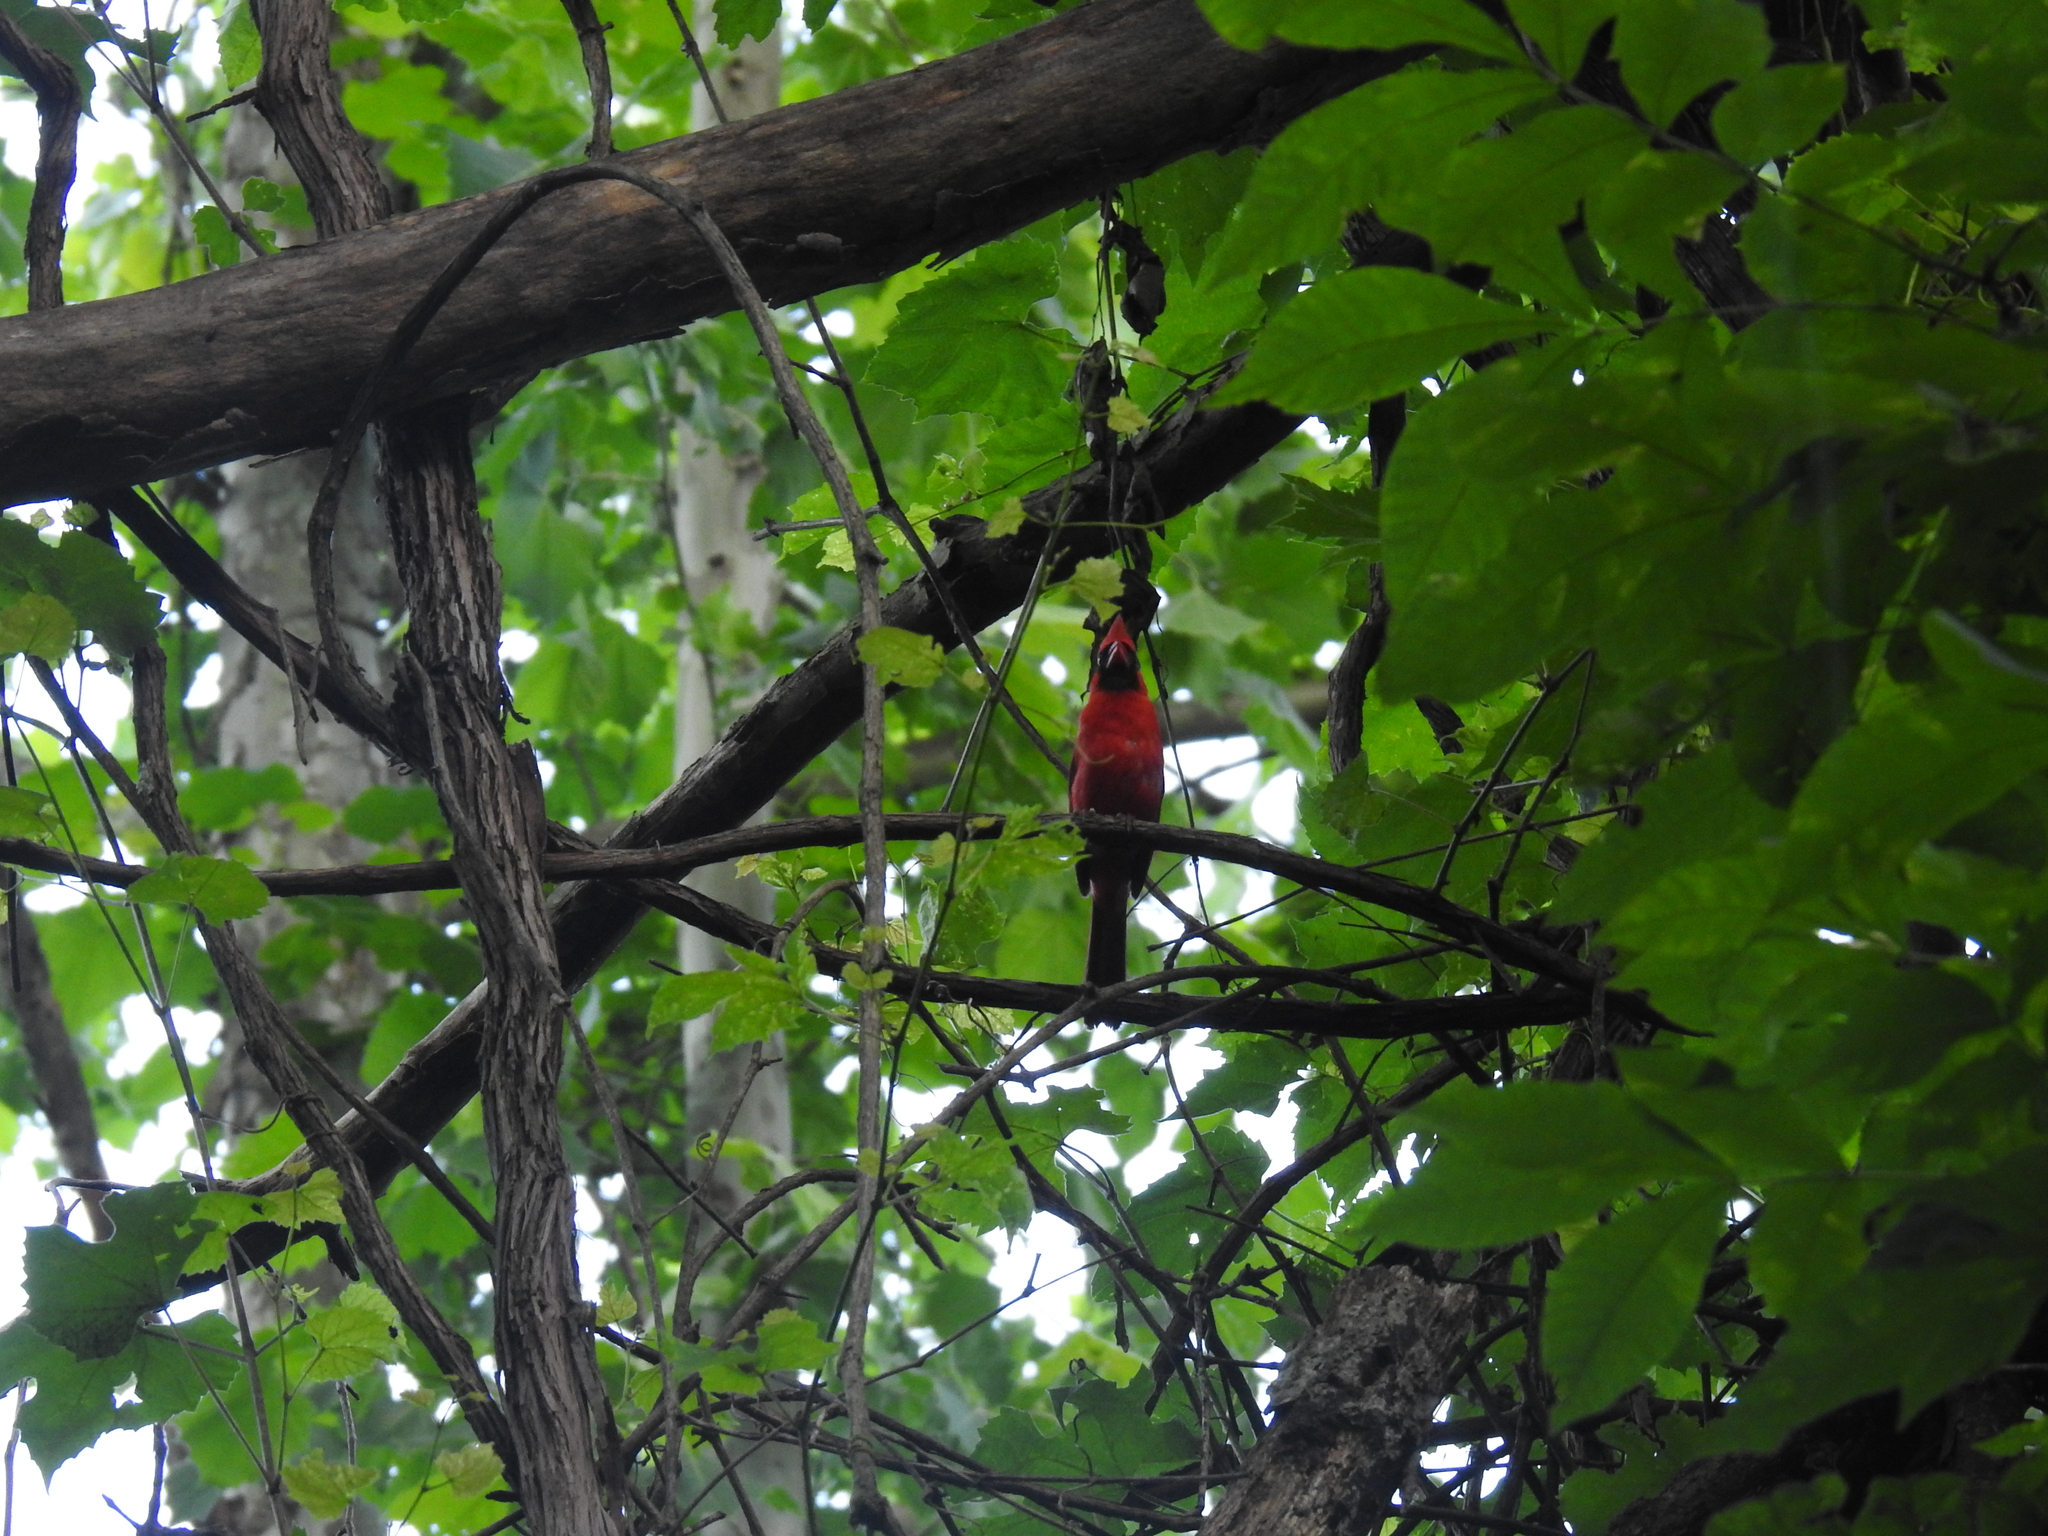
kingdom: Animalia
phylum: Chordata
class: Aves
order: Passeriformes
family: Cardinalidae
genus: Cardinalis
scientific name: Cardinalis cardinalis
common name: Northern cardinal
